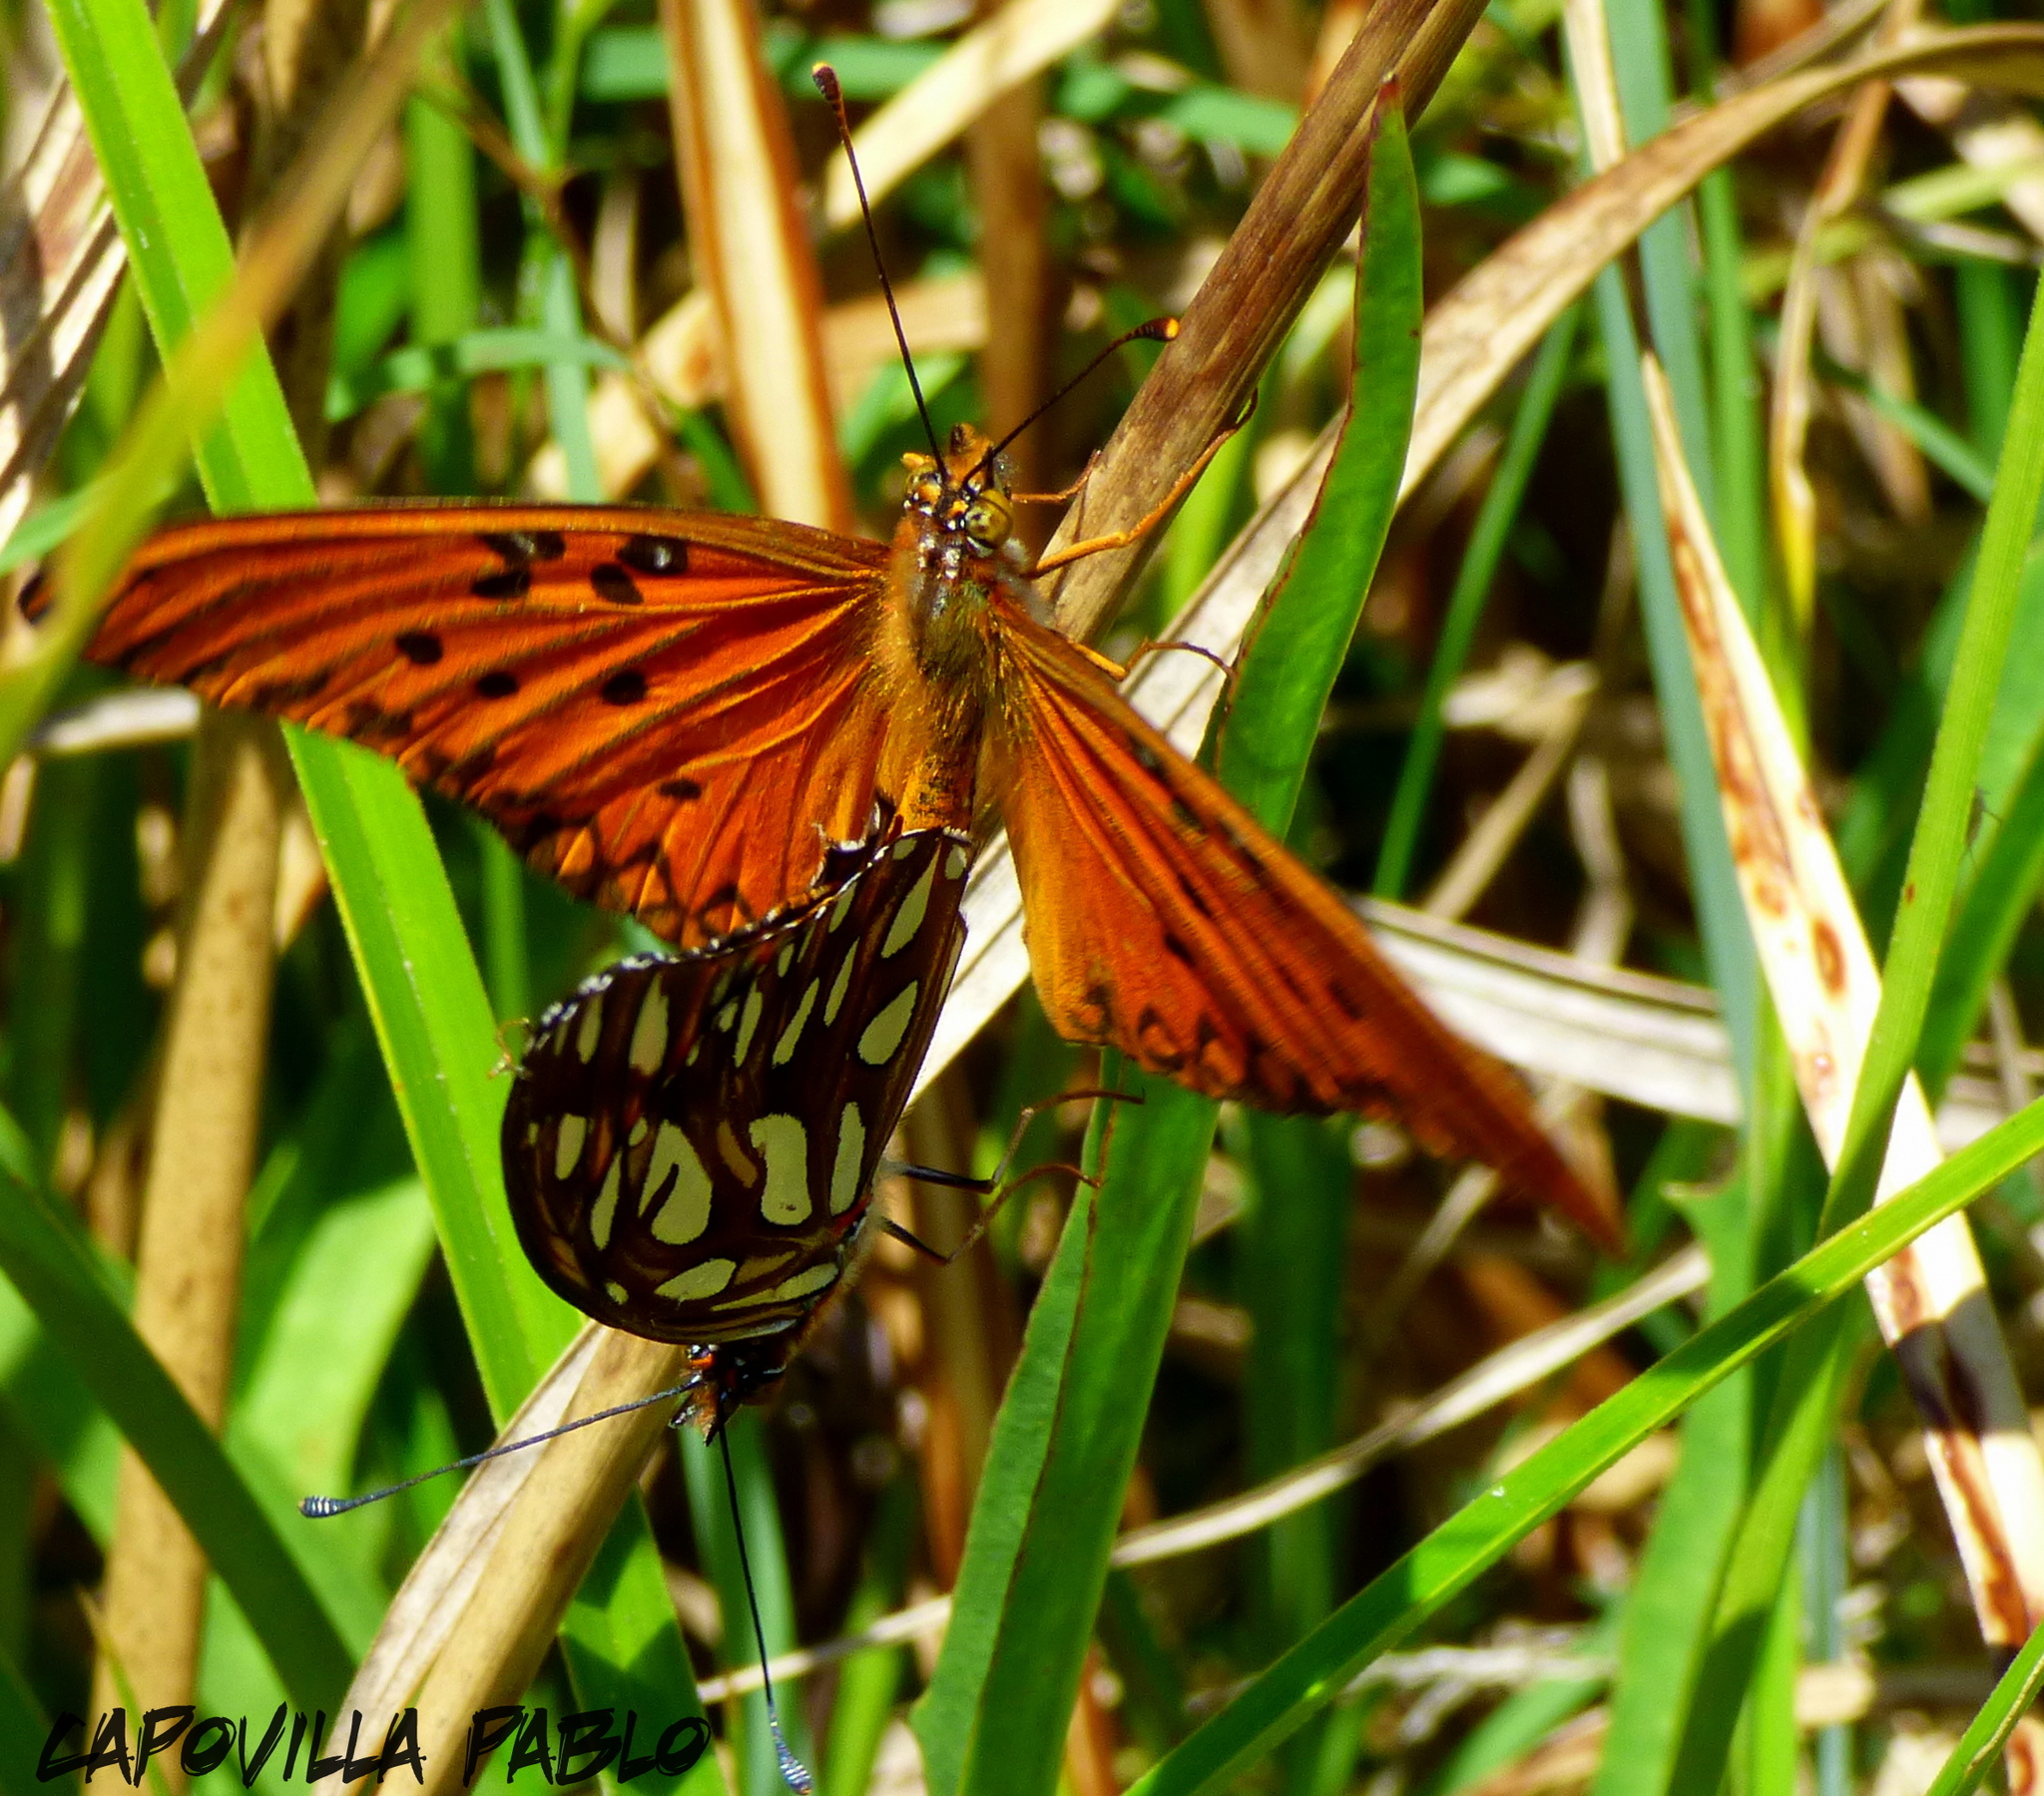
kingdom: Animalia
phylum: Arthropoda
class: Insecta
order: Lepidoptera
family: Nymphalidae
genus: Dione
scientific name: Dione vanillae
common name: Gulf fritillary
